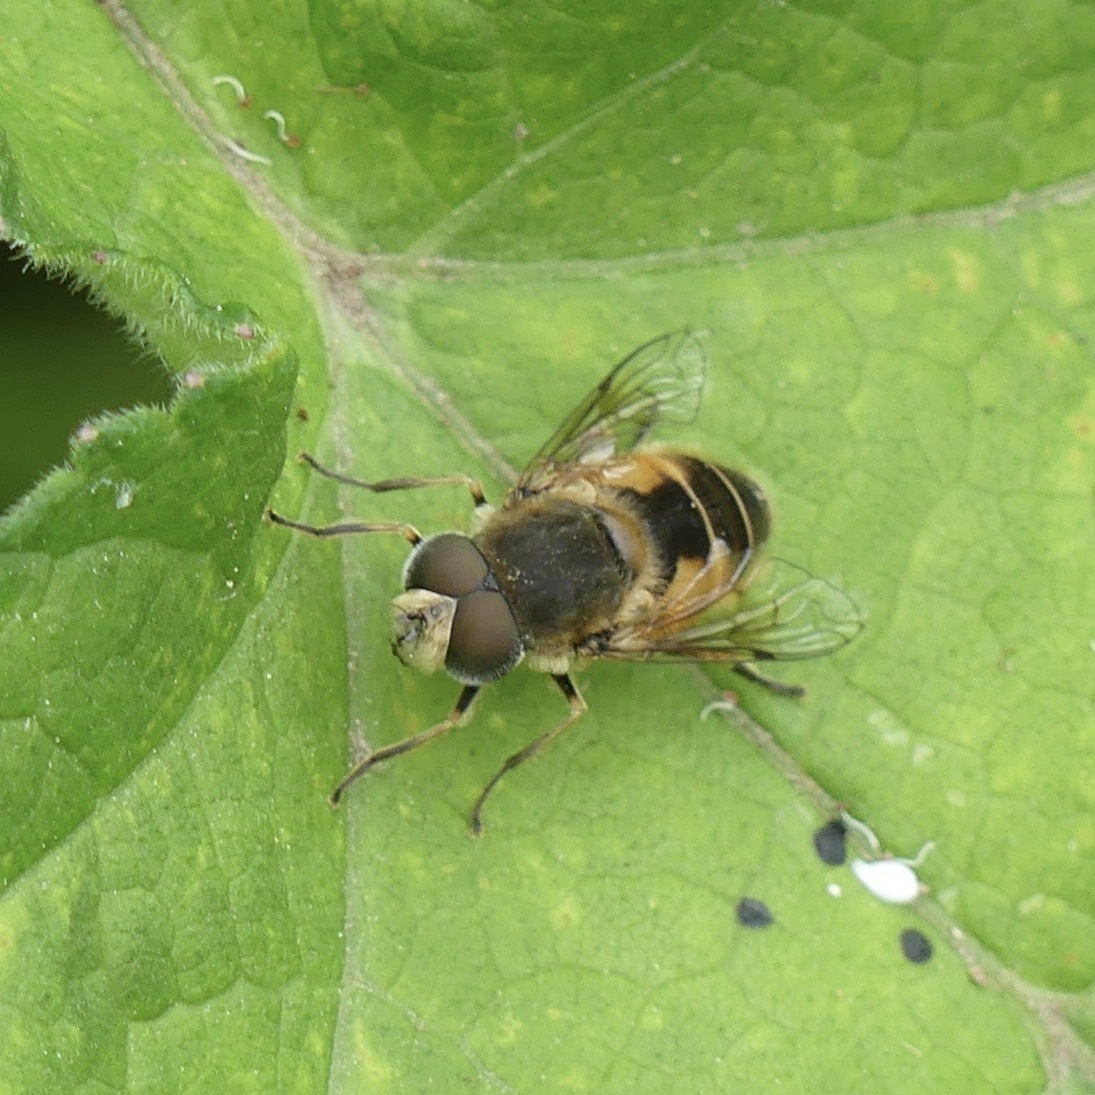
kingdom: Animalia
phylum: Arthropoda
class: Insecta
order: Diptera
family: Syrphidae
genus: Eristalis
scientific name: Eristalis arbustorum
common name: Hover fly
